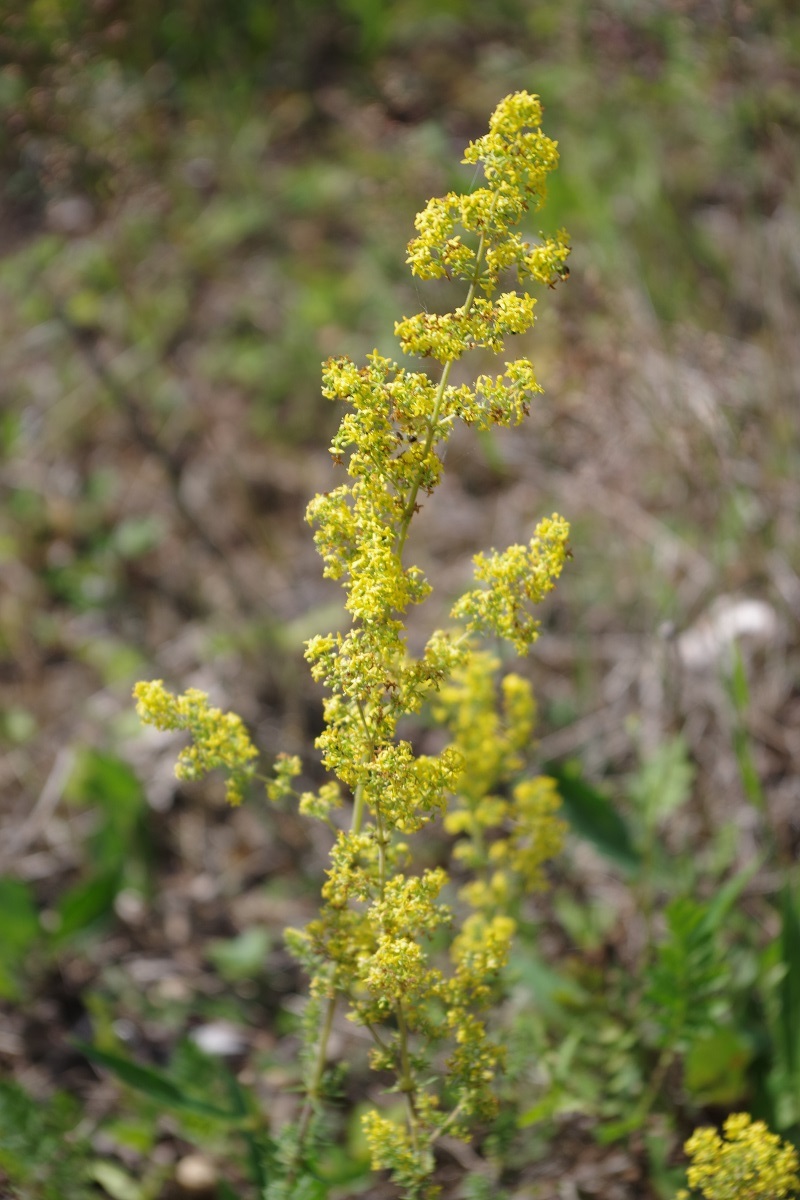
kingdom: Plantae
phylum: Tracheophyta
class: Magnoliopsida
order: Gentianales
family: Rubiaceae
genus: Galium
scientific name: Galium verum
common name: Lady's bedstraw
